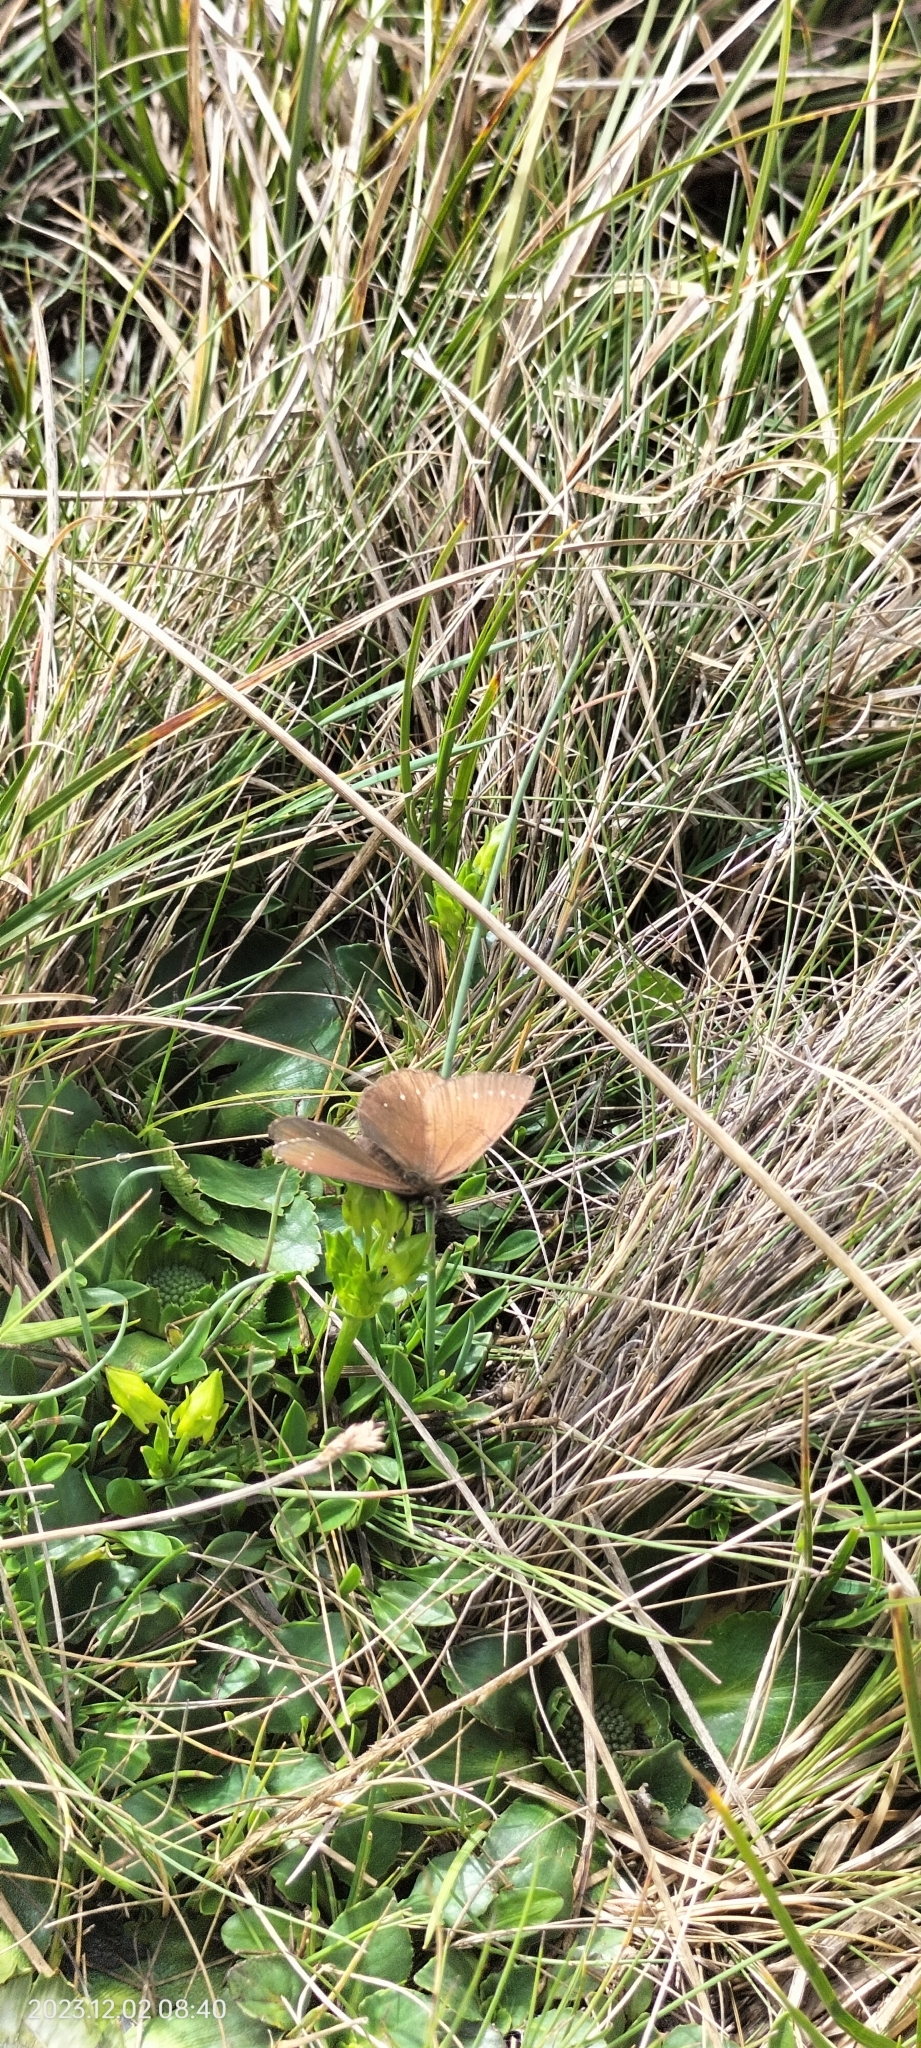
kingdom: Animalia
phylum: Arthropoda
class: Insecta
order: Lepidoptera
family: Nymphalidae
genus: Panyapedaliodes
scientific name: Panyapedaliodes drymaea
